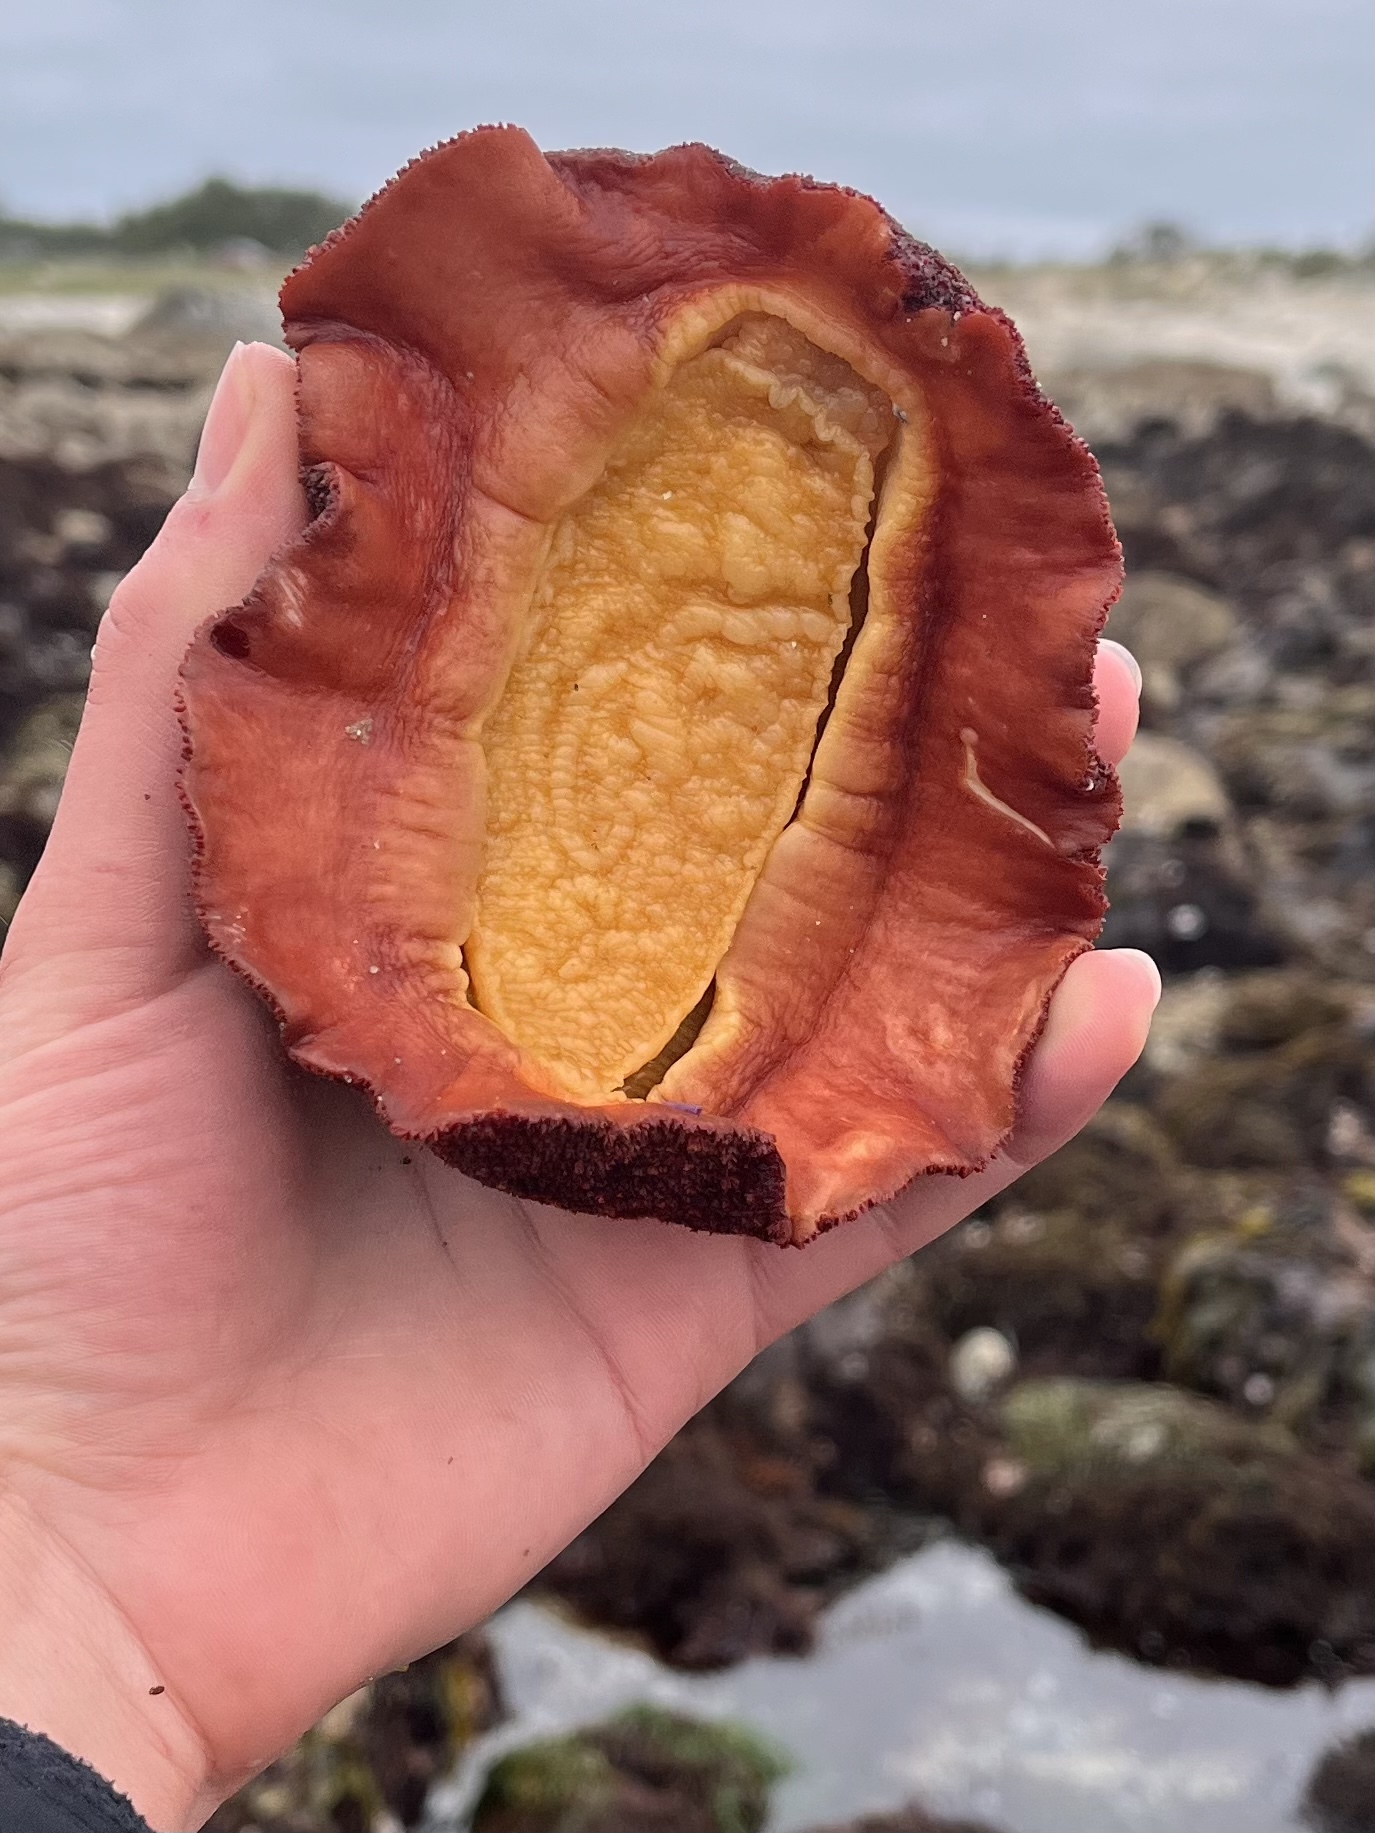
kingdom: Animalia
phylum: Mollusca
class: Polyplacophora
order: Chitonida
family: Acanthochitonidae
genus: Cryptochiton
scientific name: Cryptochiton stelleri
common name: Giant pacific chiton
